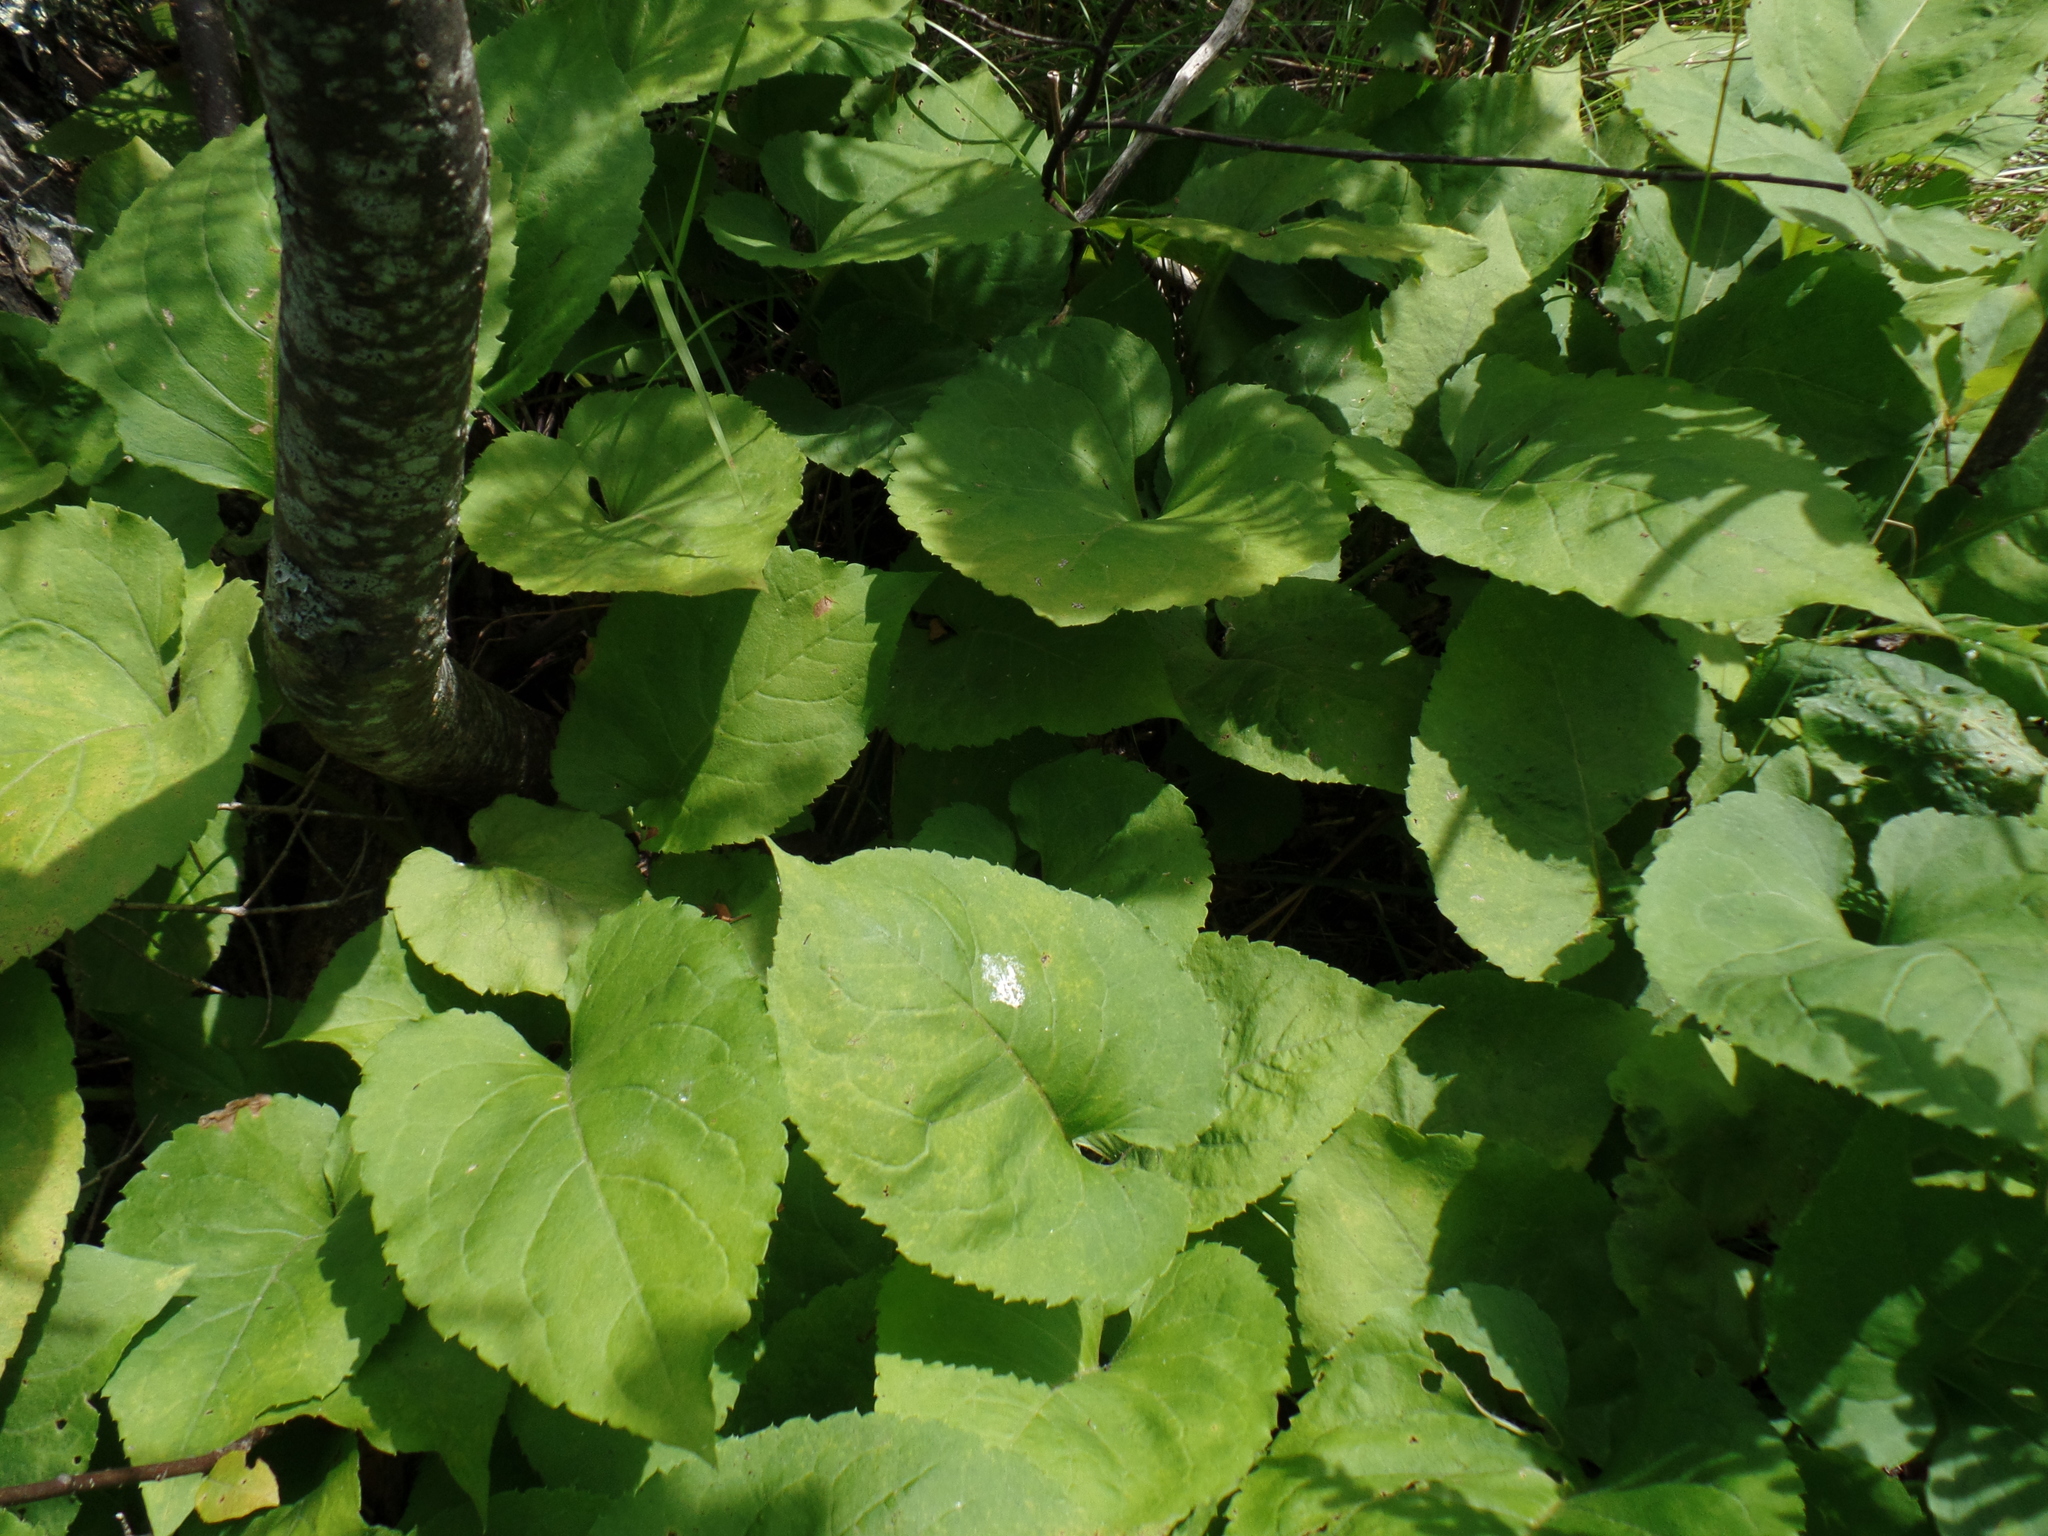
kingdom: Plantae
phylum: Tracheophyta
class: Magnoliopsida
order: Asterales
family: Asteraceae
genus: Eurybia
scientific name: Eurybia macrophylla
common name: Big-leaved aster
